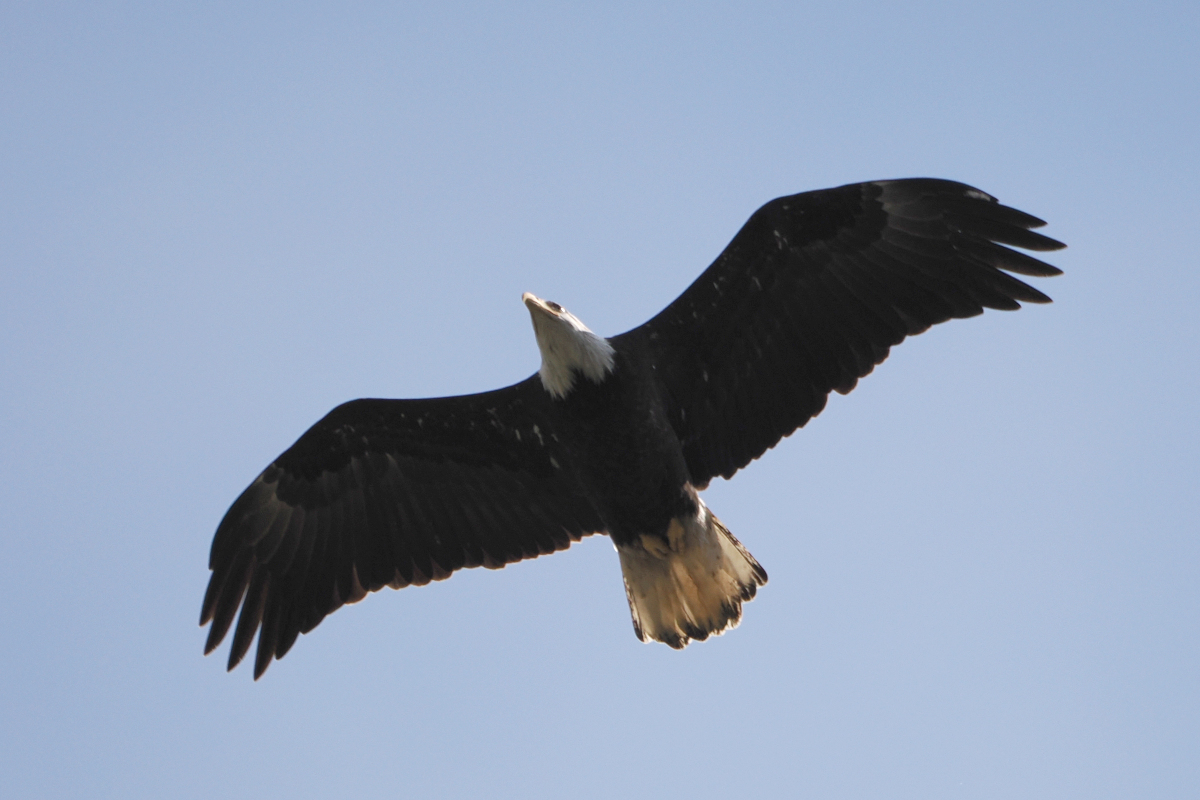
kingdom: Animalia
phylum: Chordata
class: Aves
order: Accipitriformes
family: Accipitridae
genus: Haliaeetus
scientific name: Haliaeetus leucocephalus
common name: Bald eagle
